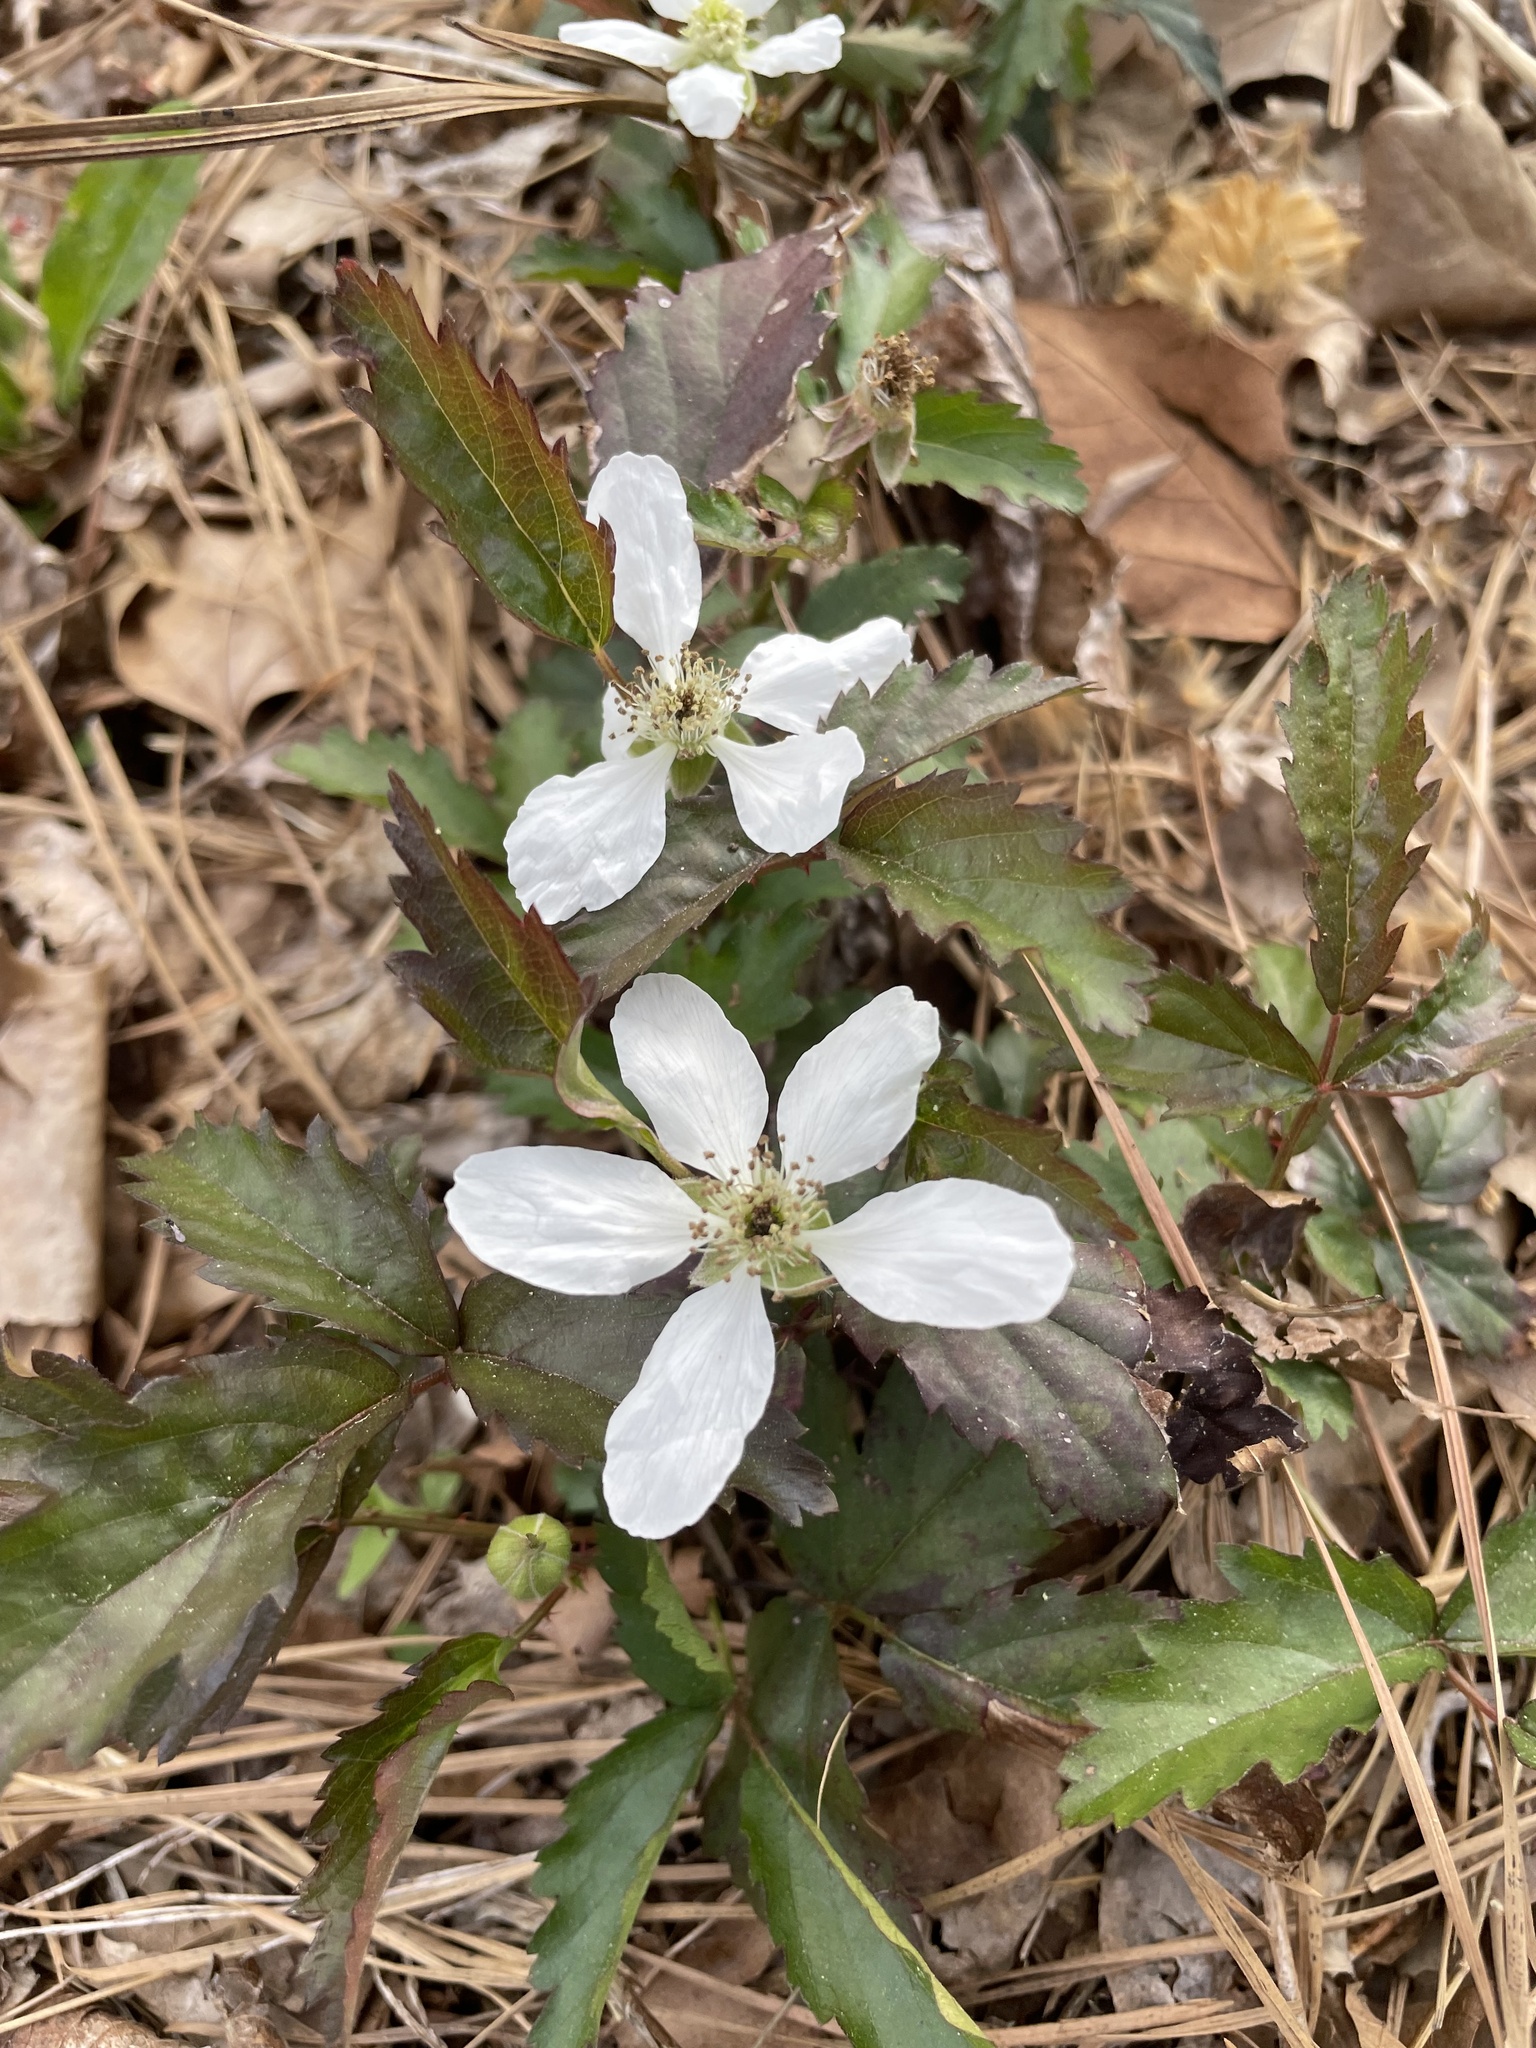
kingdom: Plantae
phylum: Tracheophyta
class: Magnoliopsida
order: Rosales
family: Rosaceae
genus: Rubus
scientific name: Rubus trivialis
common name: Southern dewberry
